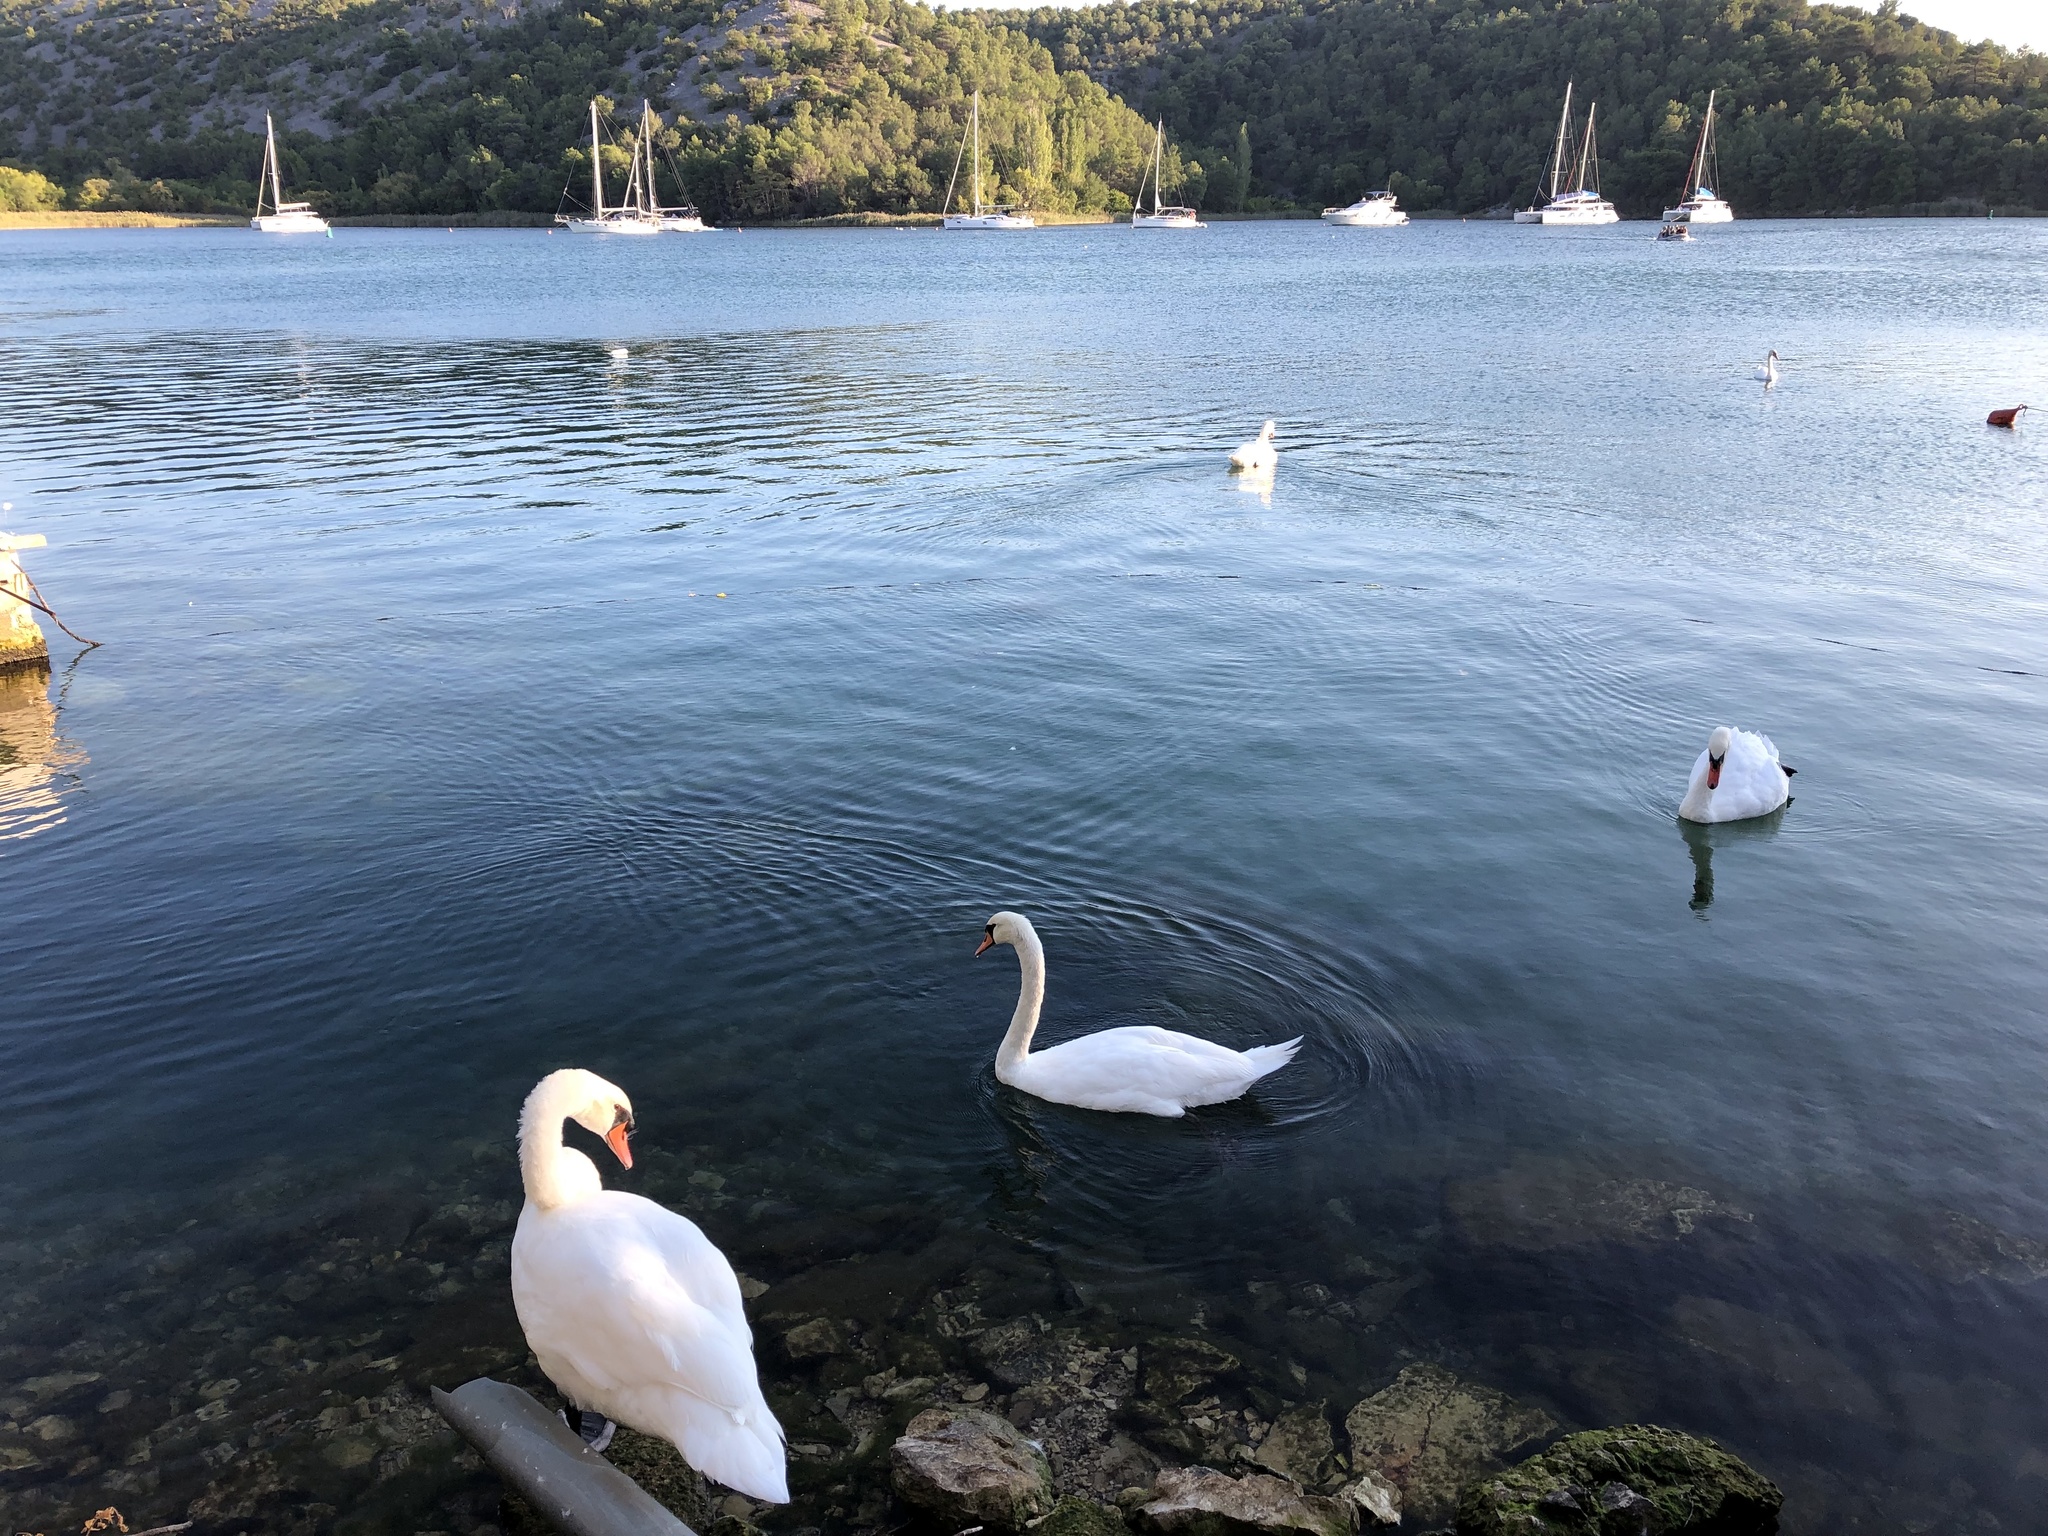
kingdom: Animalia
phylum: Chordata
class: Aves
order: Anseriformes
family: Anatidae
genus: Cygnus
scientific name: Cygnus olor
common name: Mute swan
